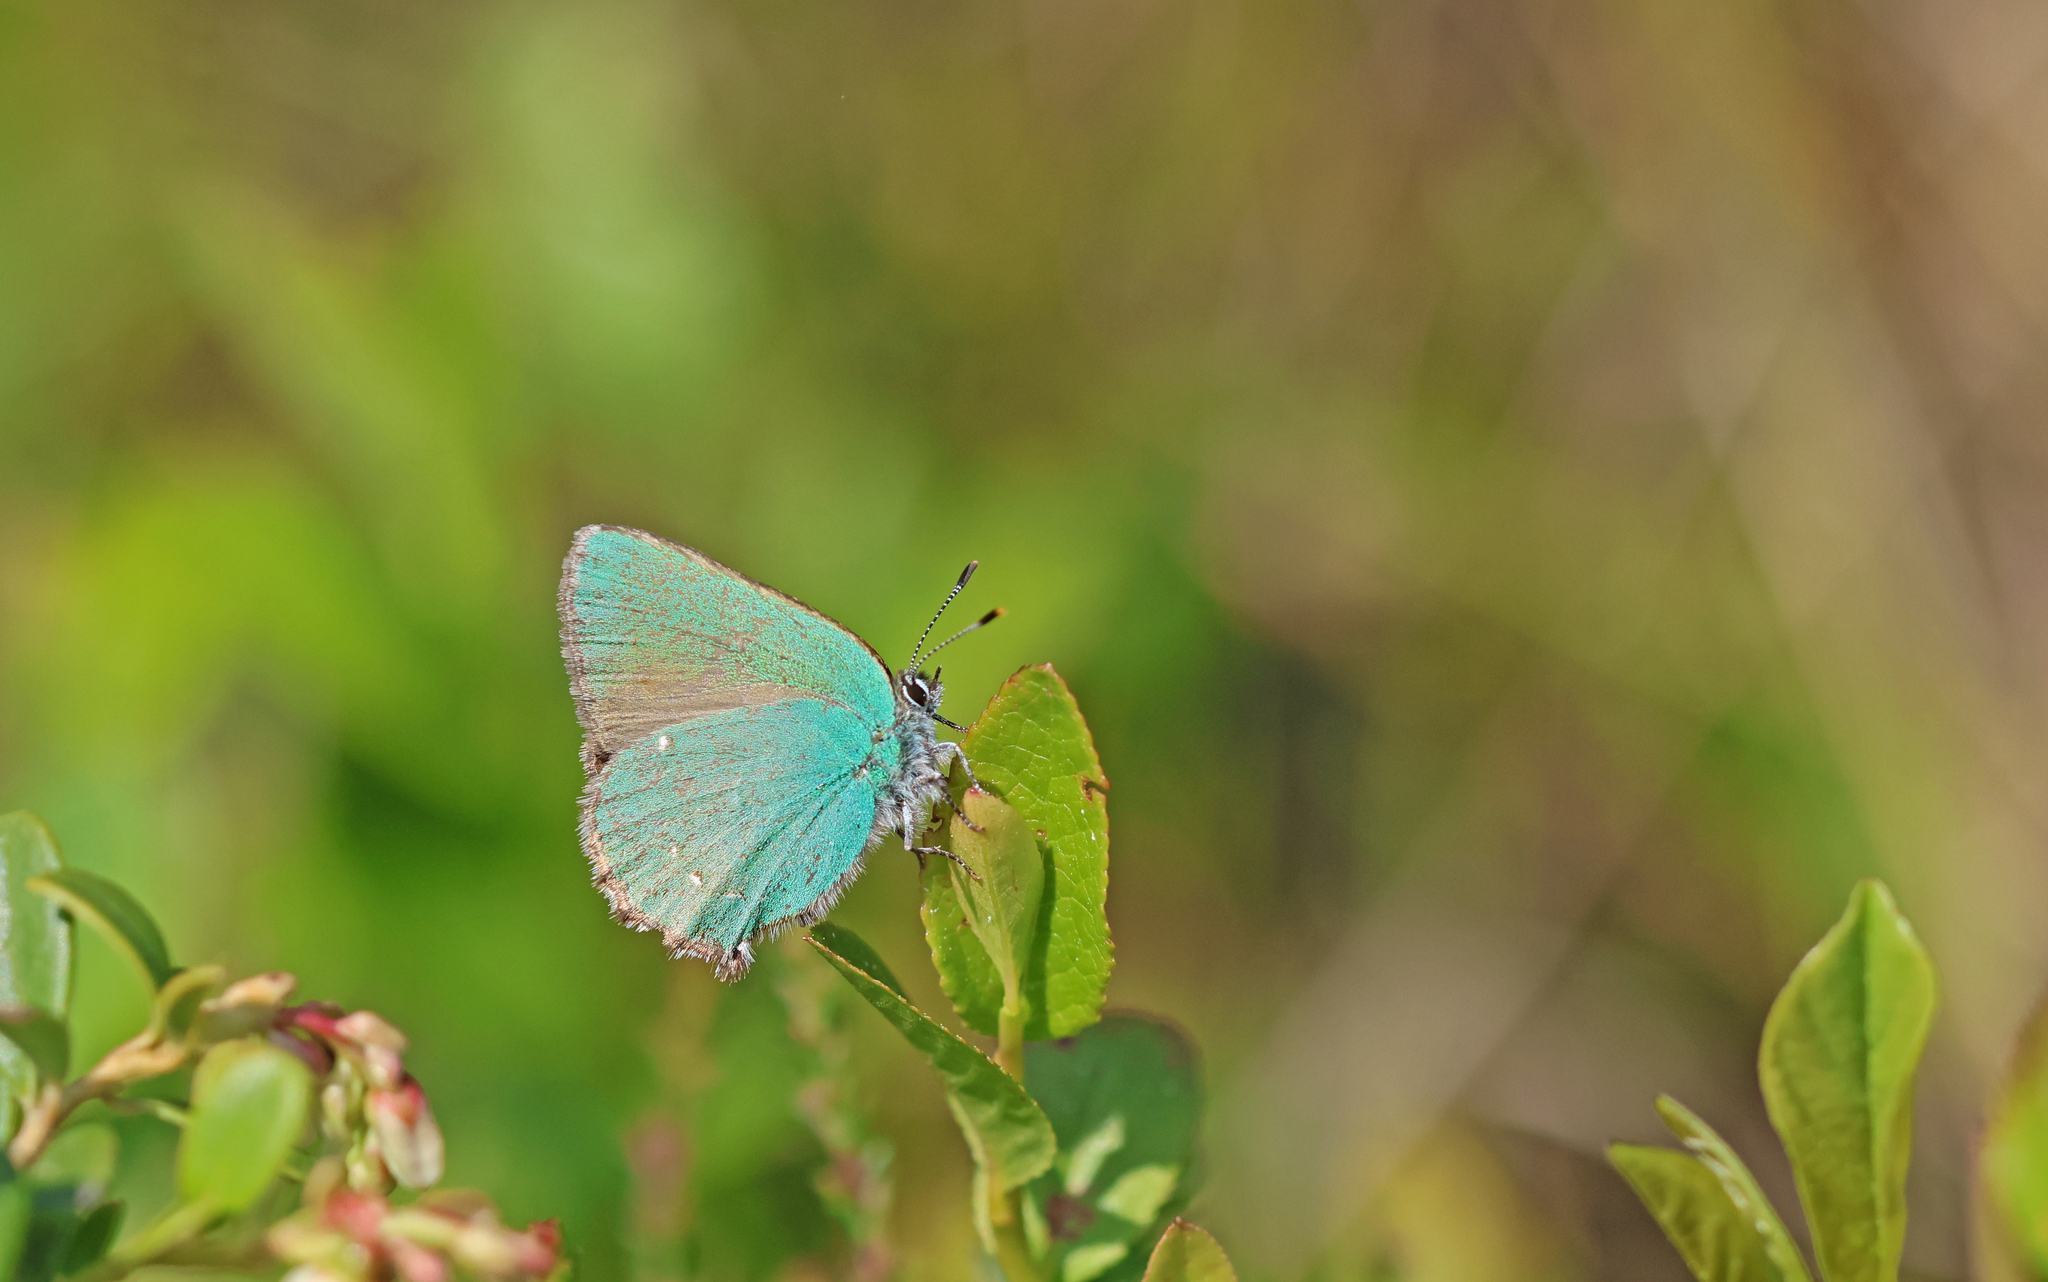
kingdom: Animalia
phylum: Arthropoda
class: Insecta
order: Lepidoptera
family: Lycaenidae
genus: Callophrys
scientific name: Callophrys rubi
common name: Green hairstreak
